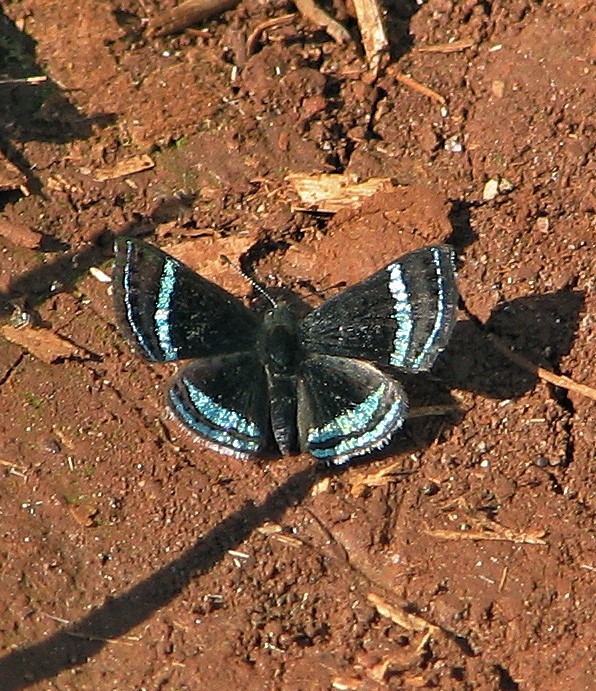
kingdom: Animalia
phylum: Arthropoda
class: Insecta
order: Lepidoptera
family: Riodinidae
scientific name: Riodinidae
